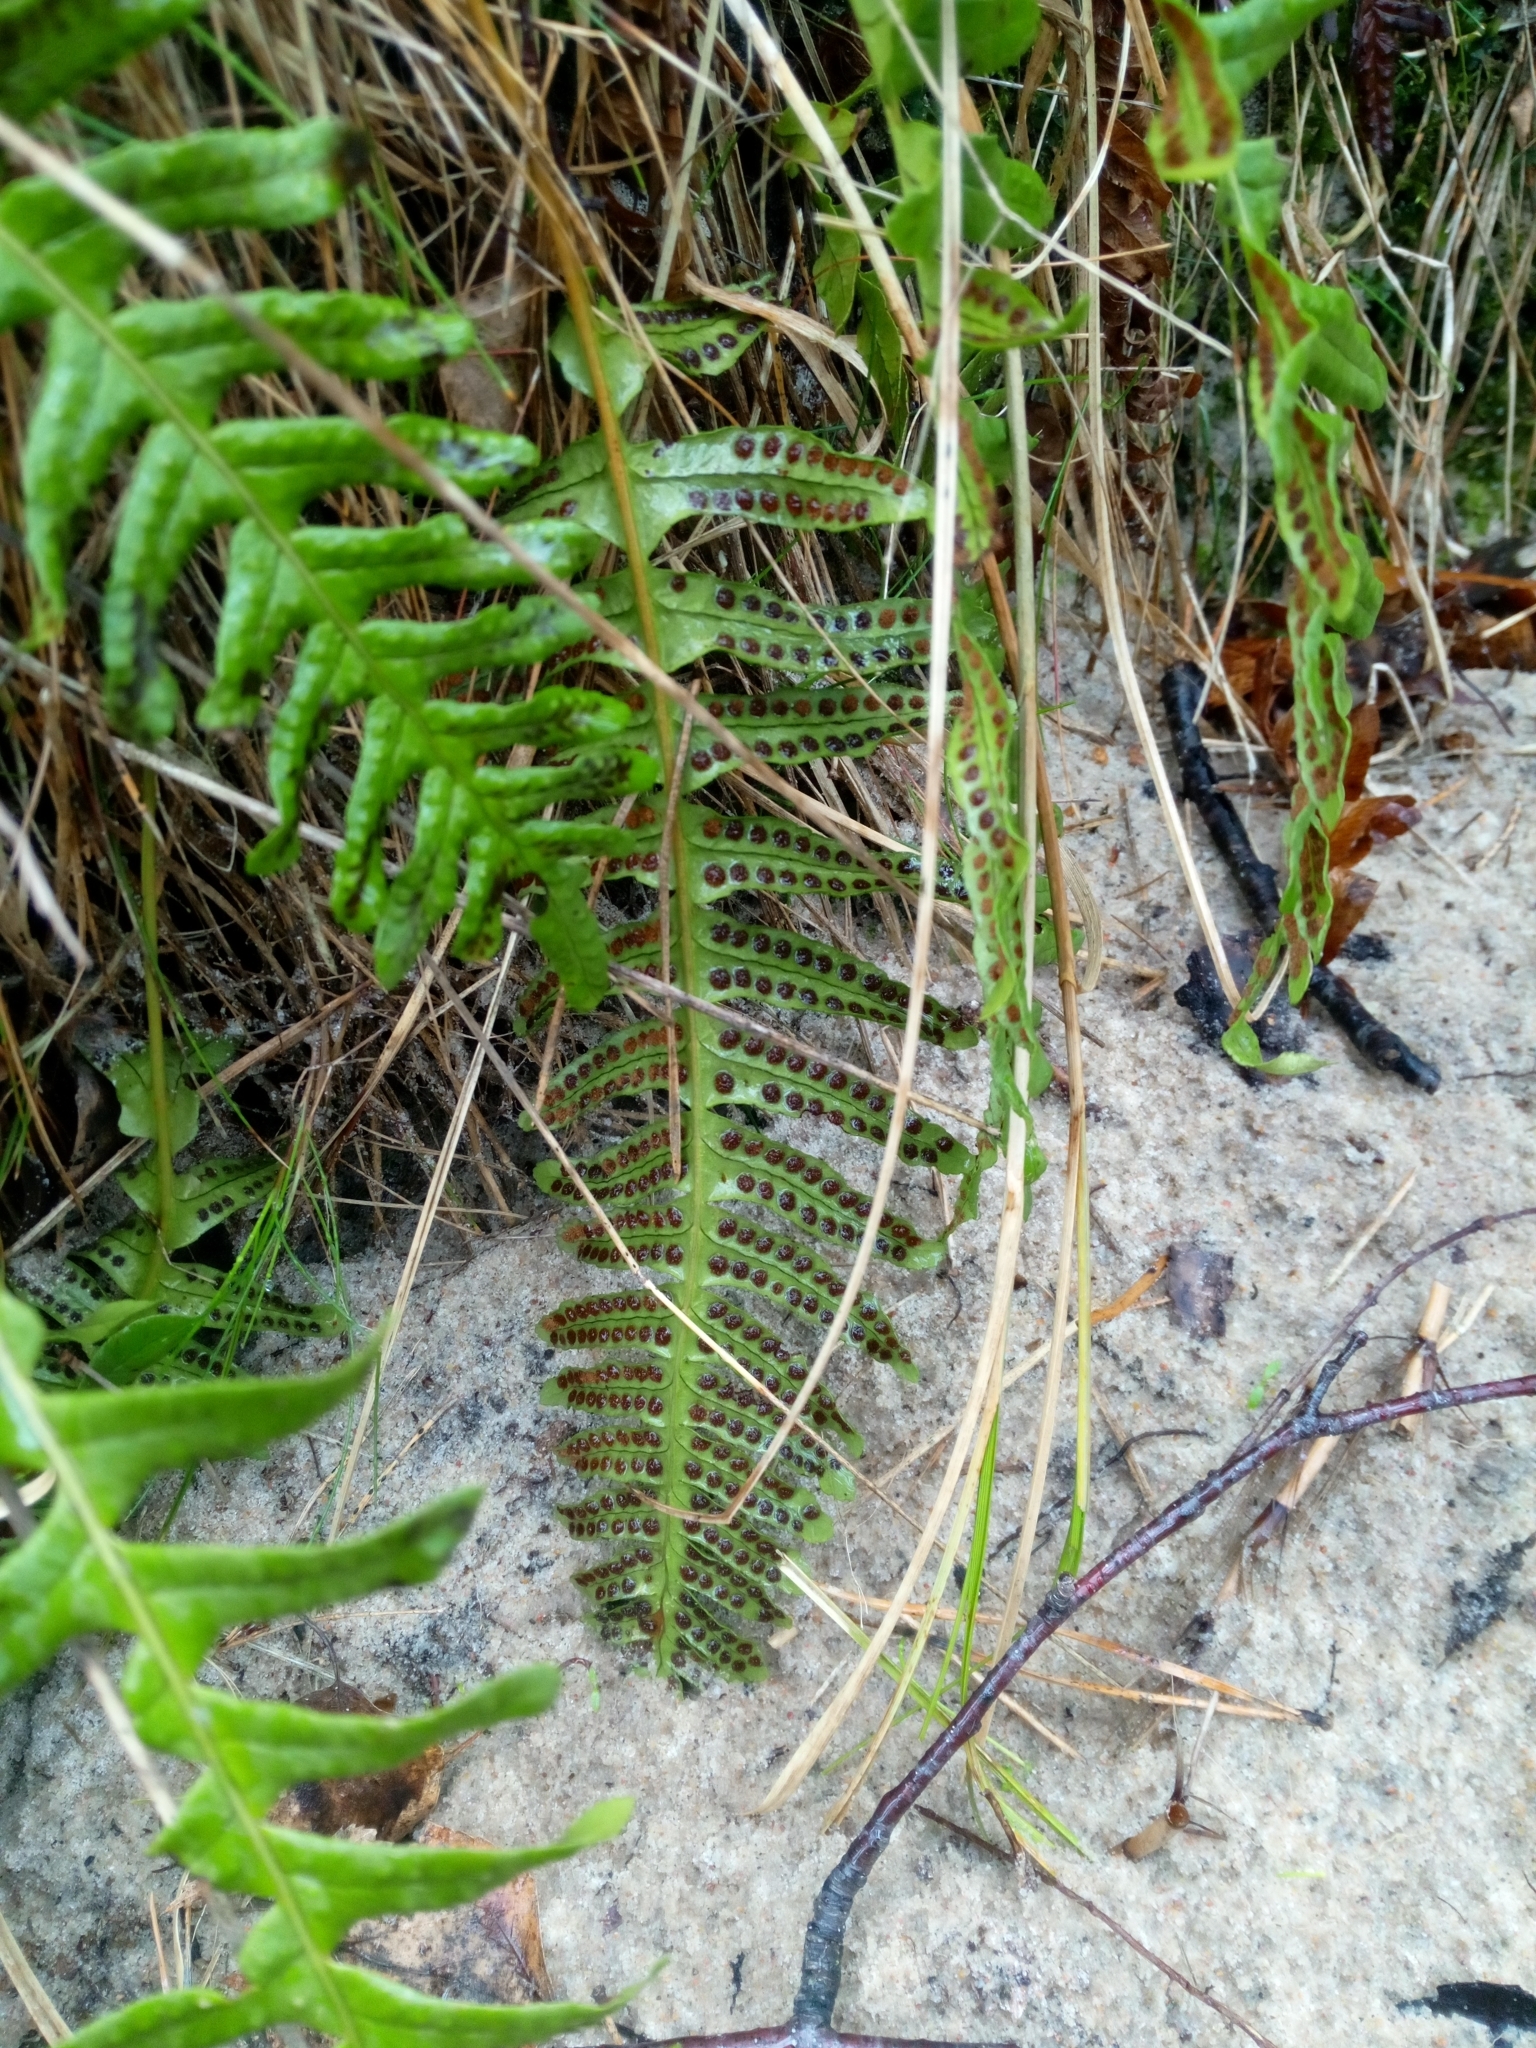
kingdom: Plantae
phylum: Tracheophyta
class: Polypodiopsida
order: Polypodiales
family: Polypodiaceae
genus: Polypodium
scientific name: Polypodium vulgare
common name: Common polypody
